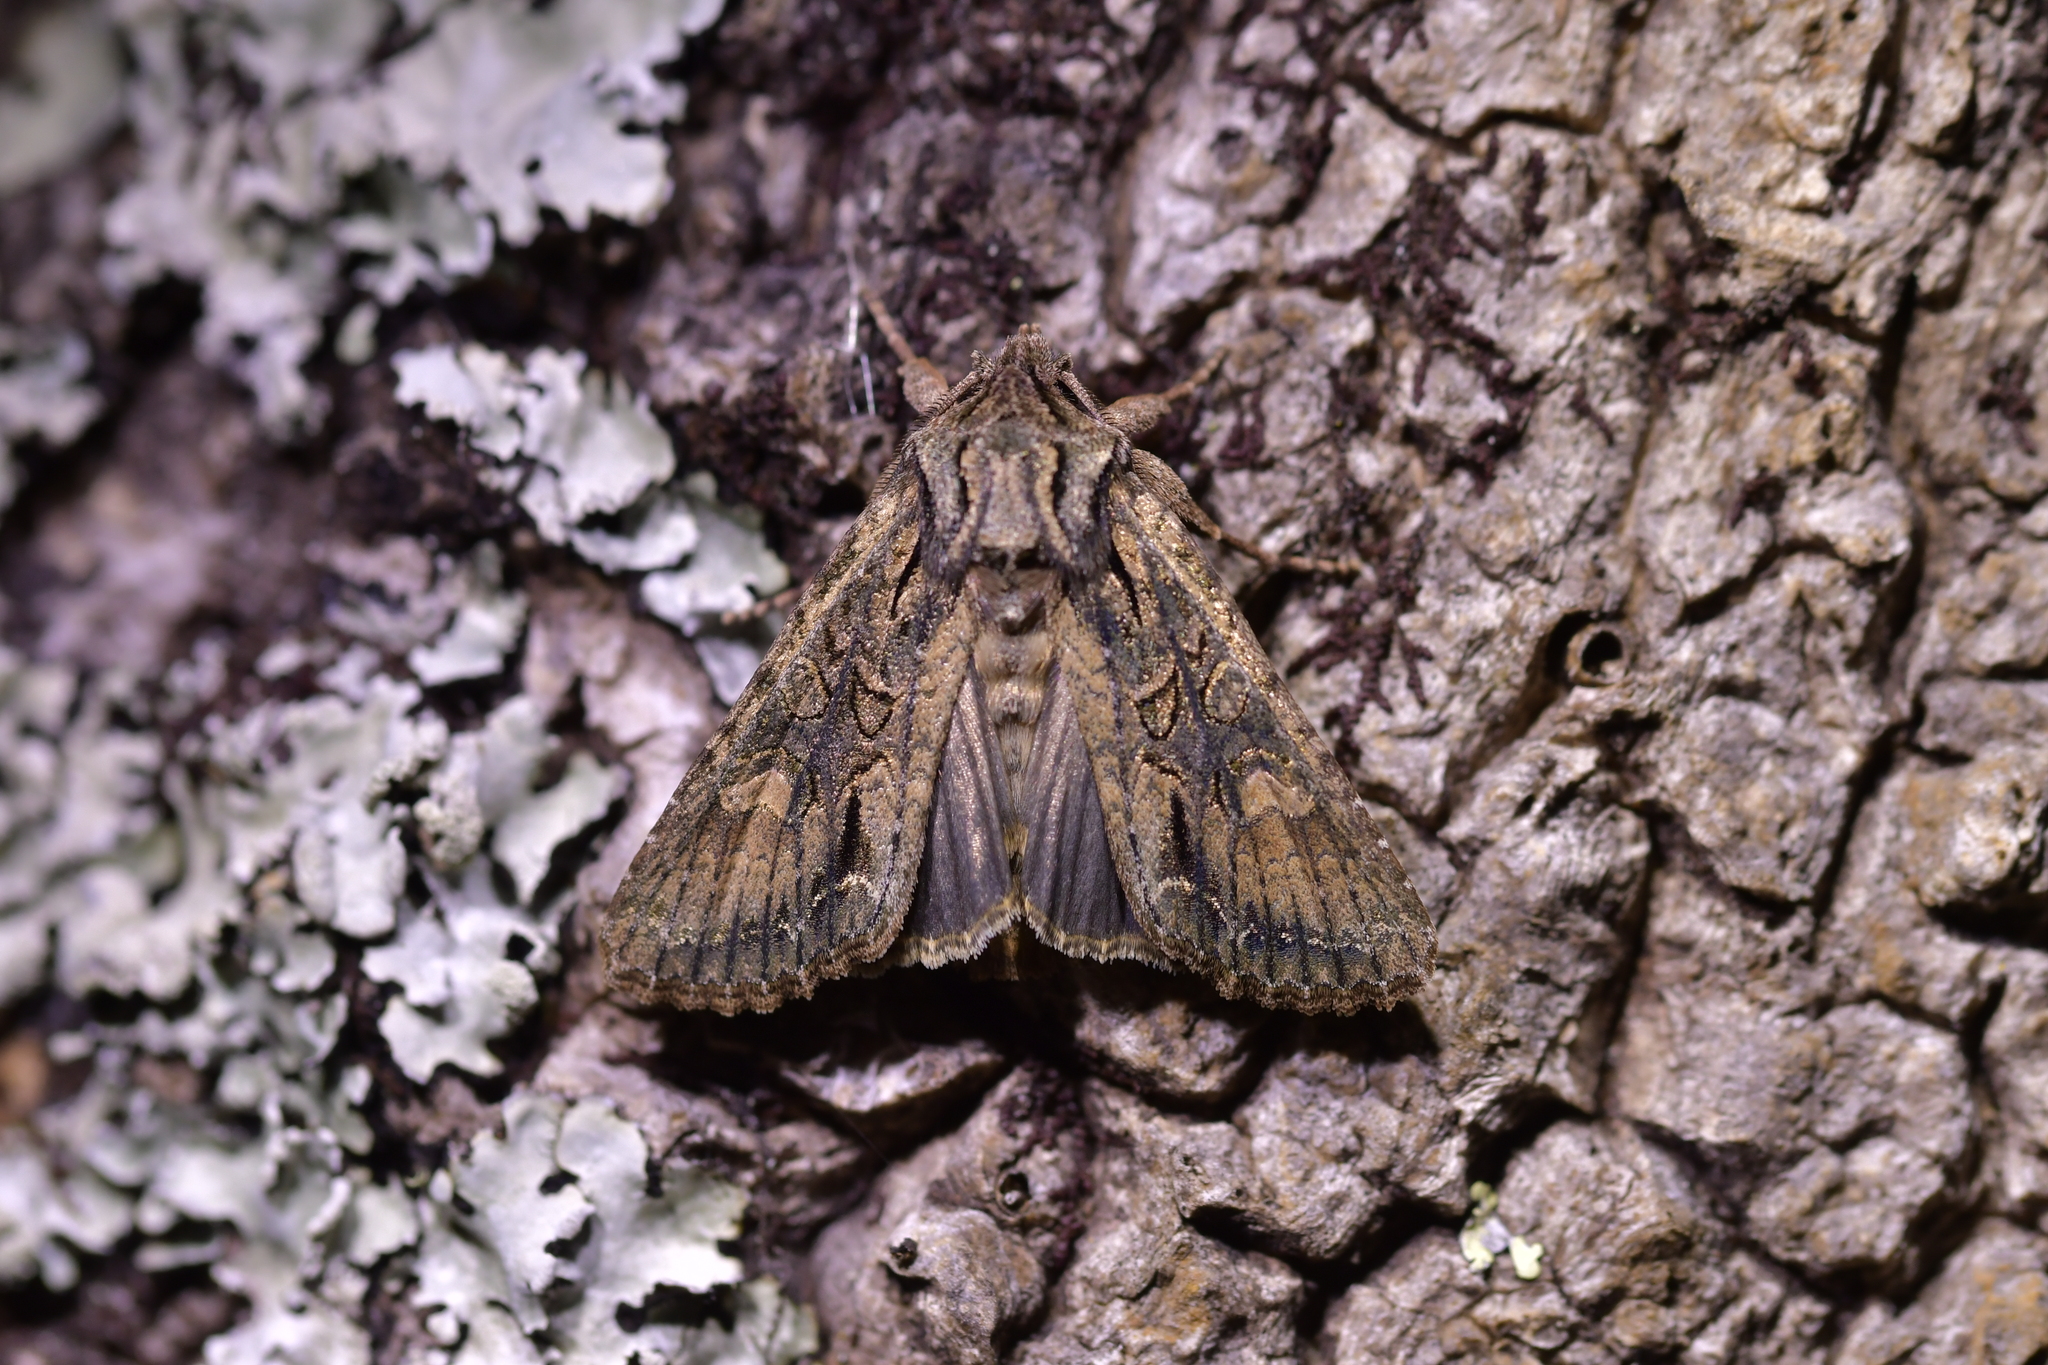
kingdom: Animalia
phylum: Arthropoda
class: Insecta
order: Lepidoptera
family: Noctuidae
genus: Ichneutica
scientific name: Ichneutica mutans
